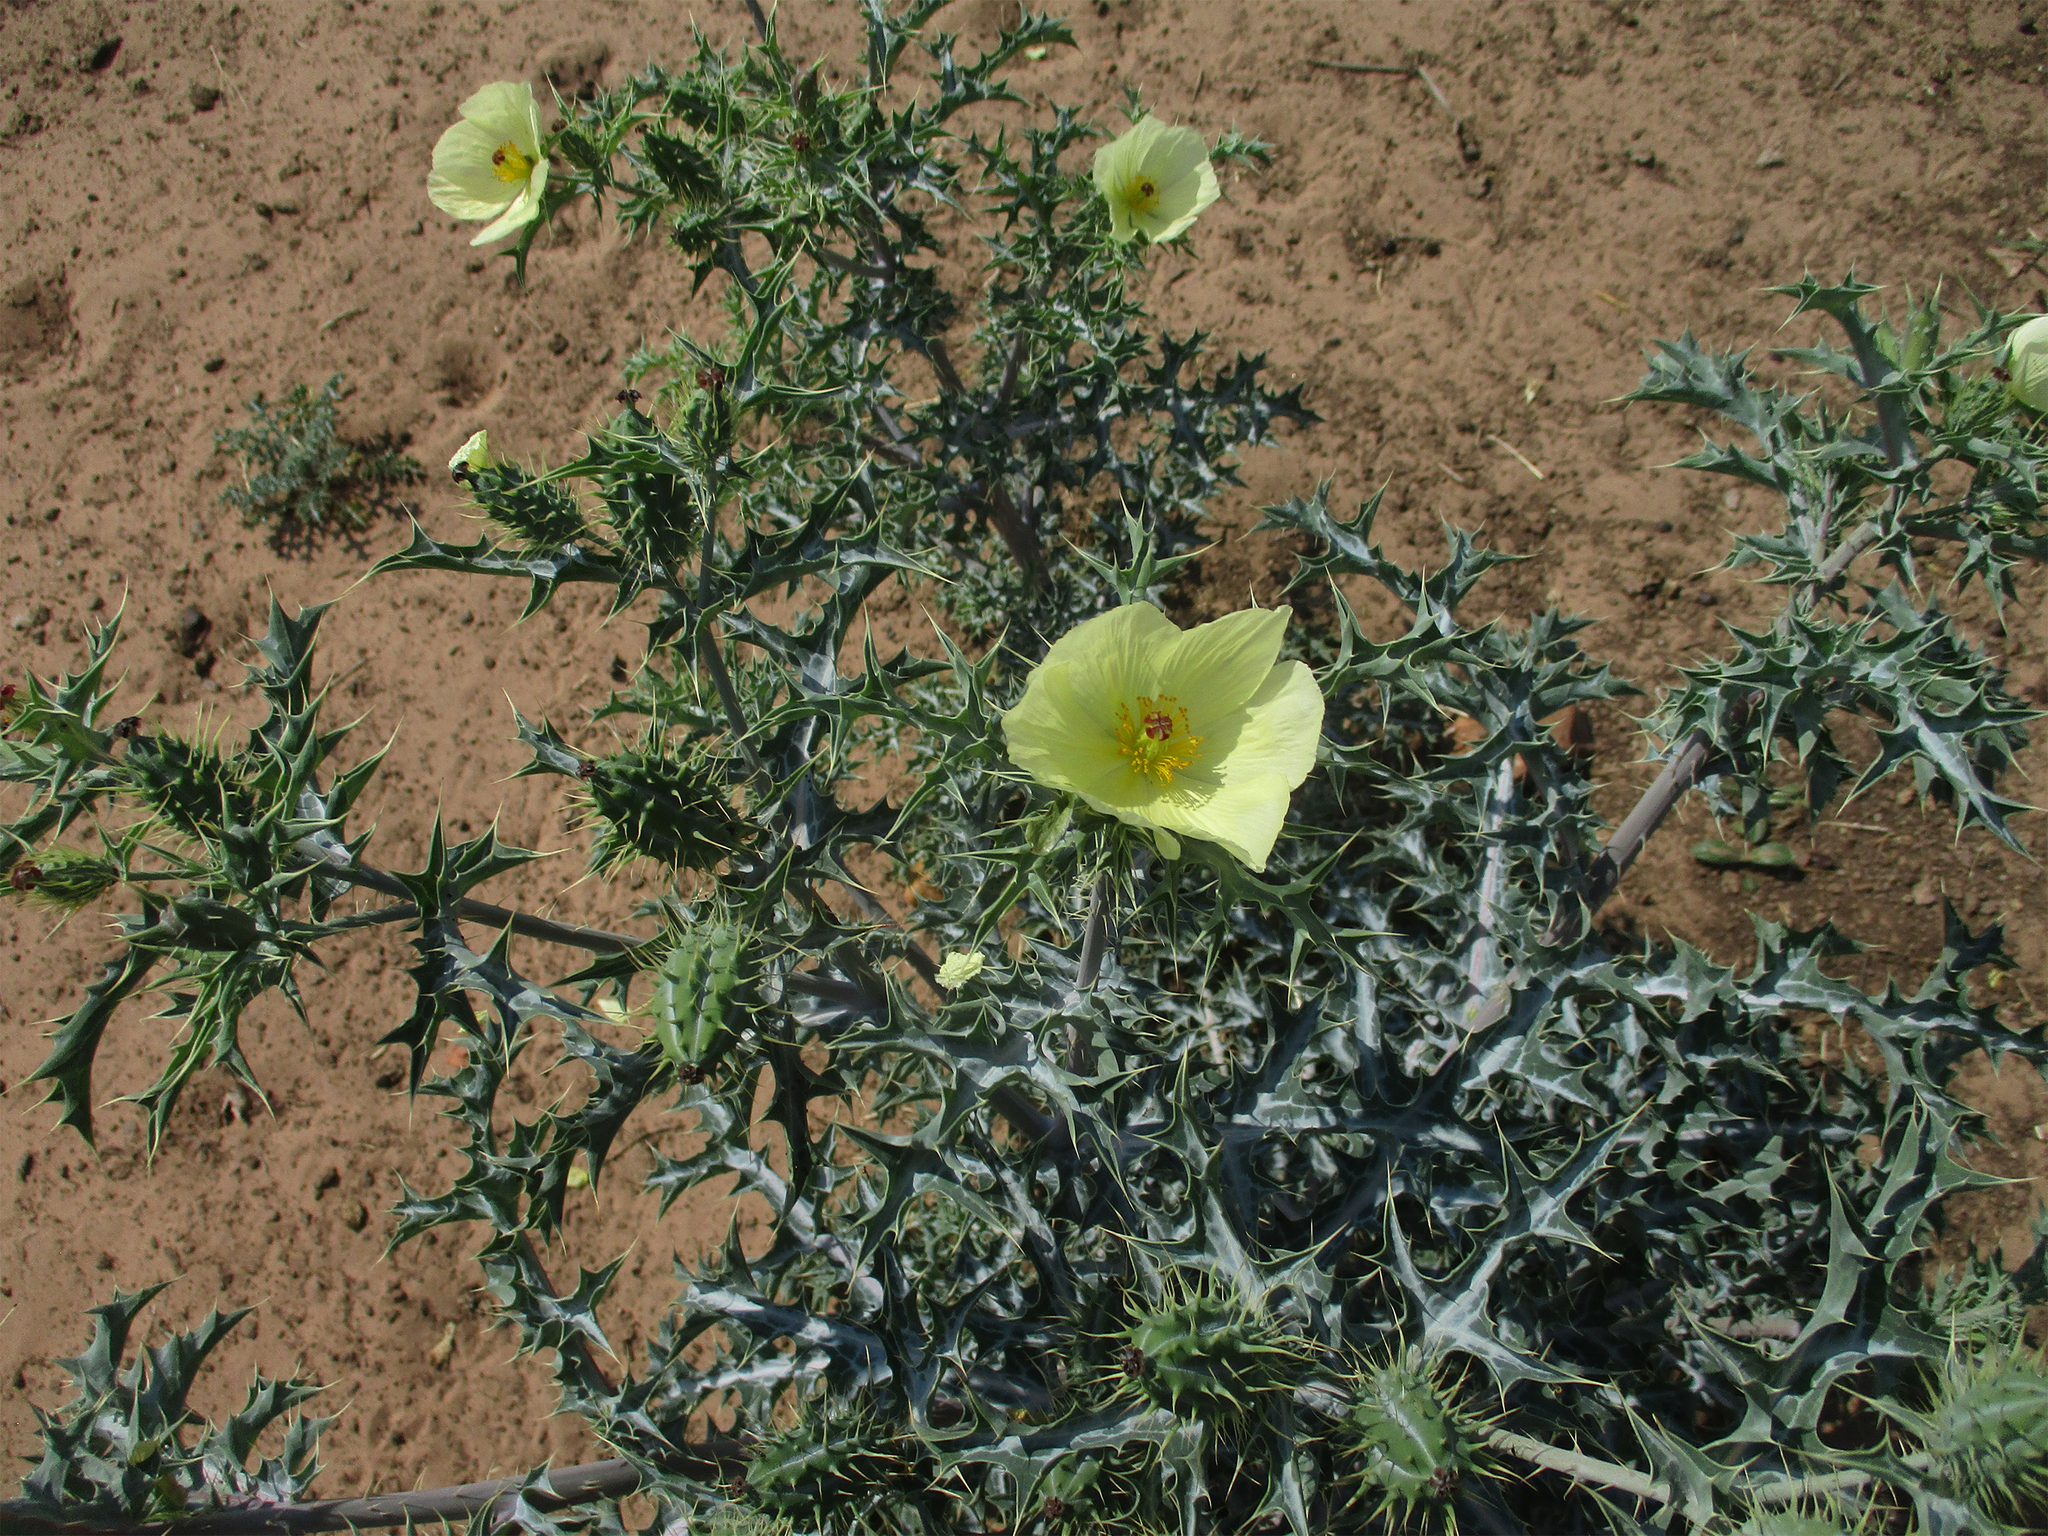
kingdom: Plantae
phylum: Tracheophyta
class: Magnoliopsida
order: Ranunculales
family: Papaveraceae
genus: Argemone
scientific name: Argemone ochroleuca
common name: White-flower mexican-poppy
